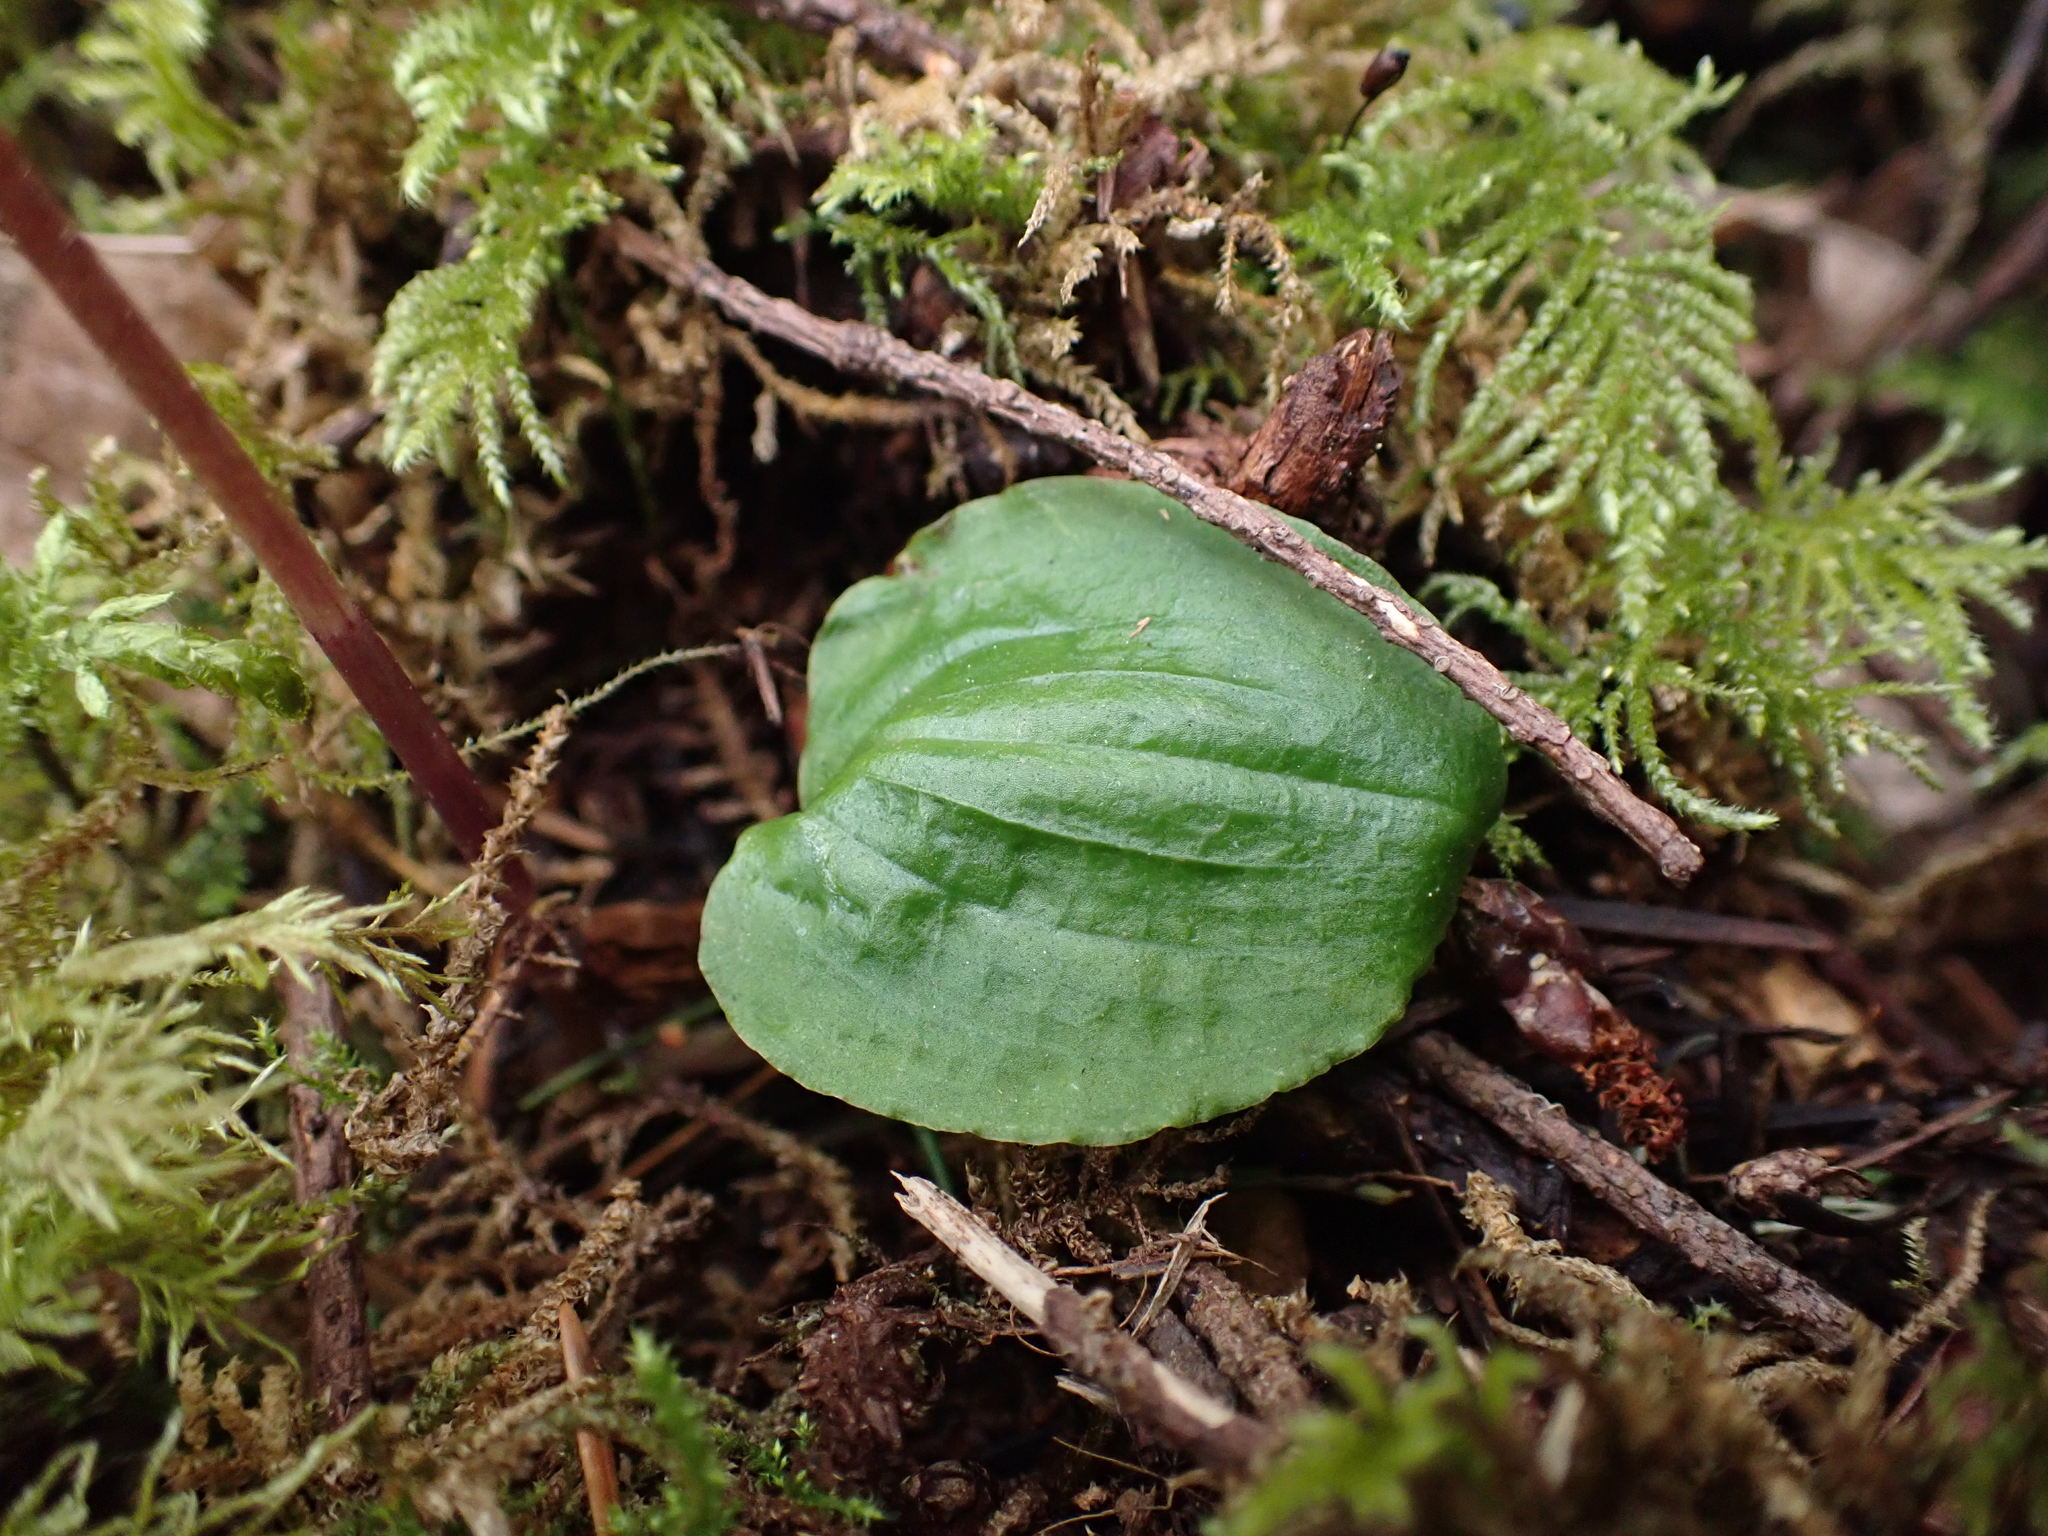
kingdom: Plantae
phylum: Tracheophyta
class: Liliopsida
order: Asparagales
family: Orchidaceae
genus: Calypso
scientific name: Calypso bulbosa
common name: Calypso
